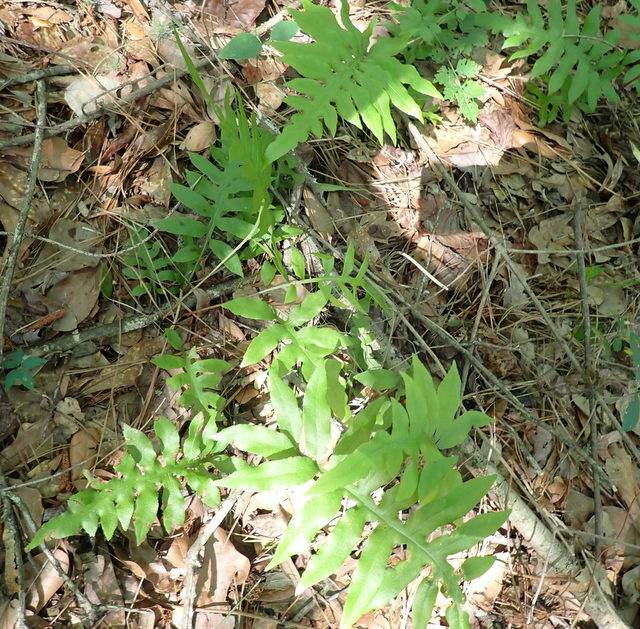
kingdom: Plantae
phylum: Tracheophyta
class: Polypodiopsida
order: Polypodiales
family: Blechnaceae
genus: Lorinseria
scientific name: Lorinseria areolata
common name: Dwarf chain fern
